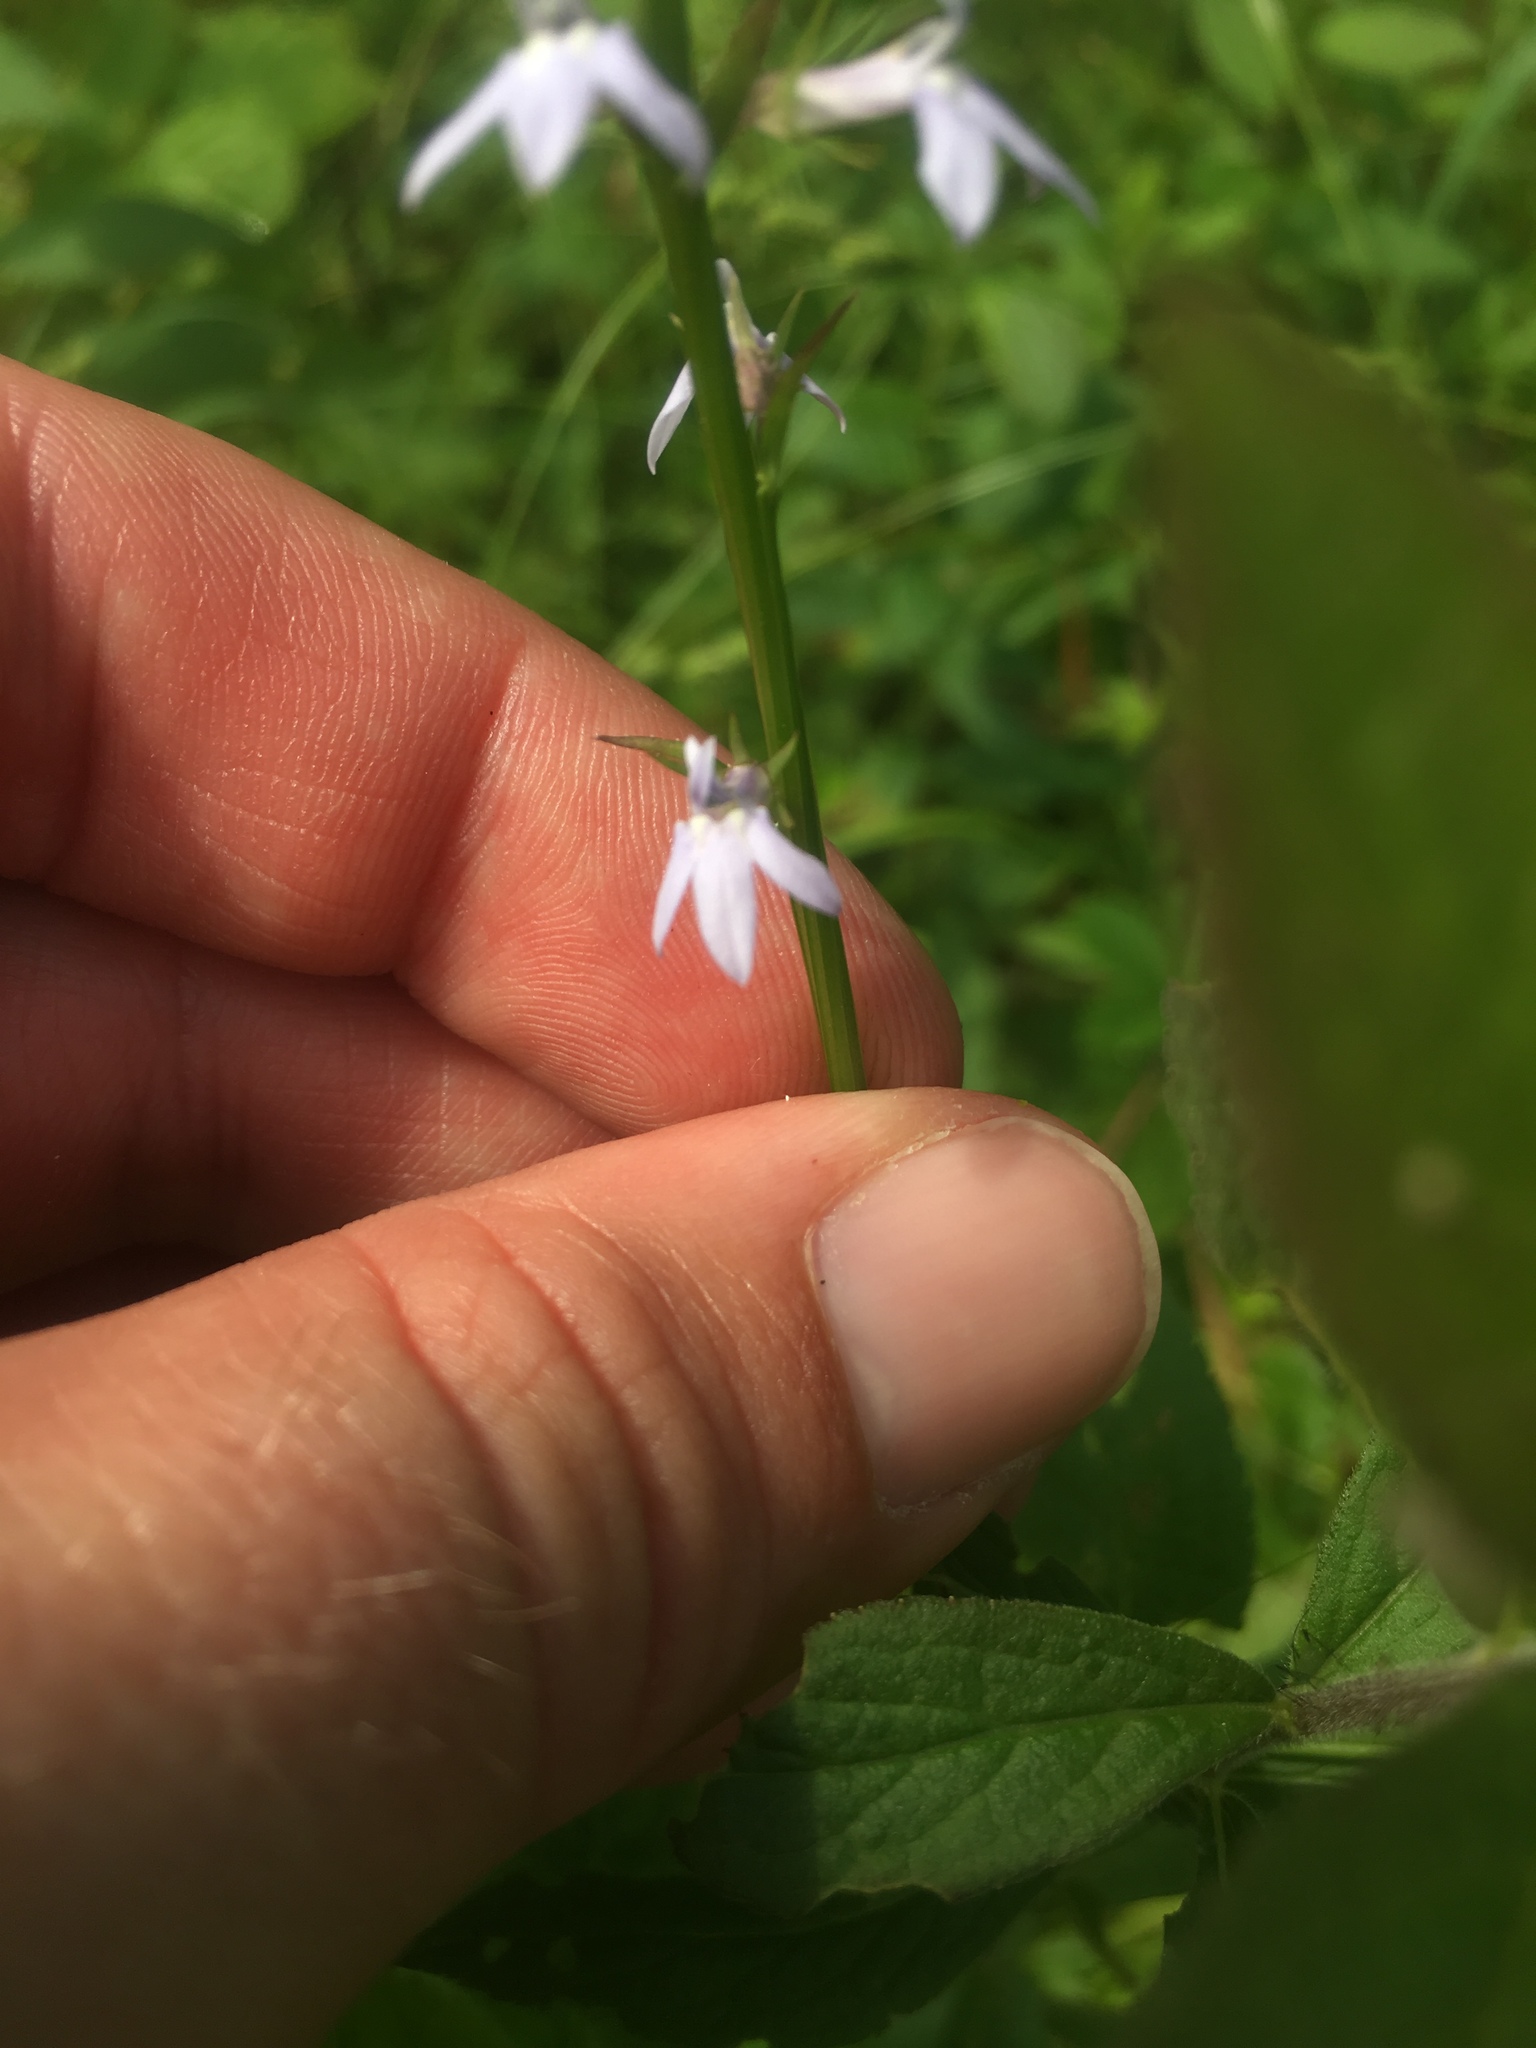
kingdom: Plantae
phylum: Tracheophyta
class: Magnoliopsida
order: Asterales
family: Campanulaceae
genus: Lobelia
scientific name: Lobelia spicata
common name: Pale-spike lobelia
